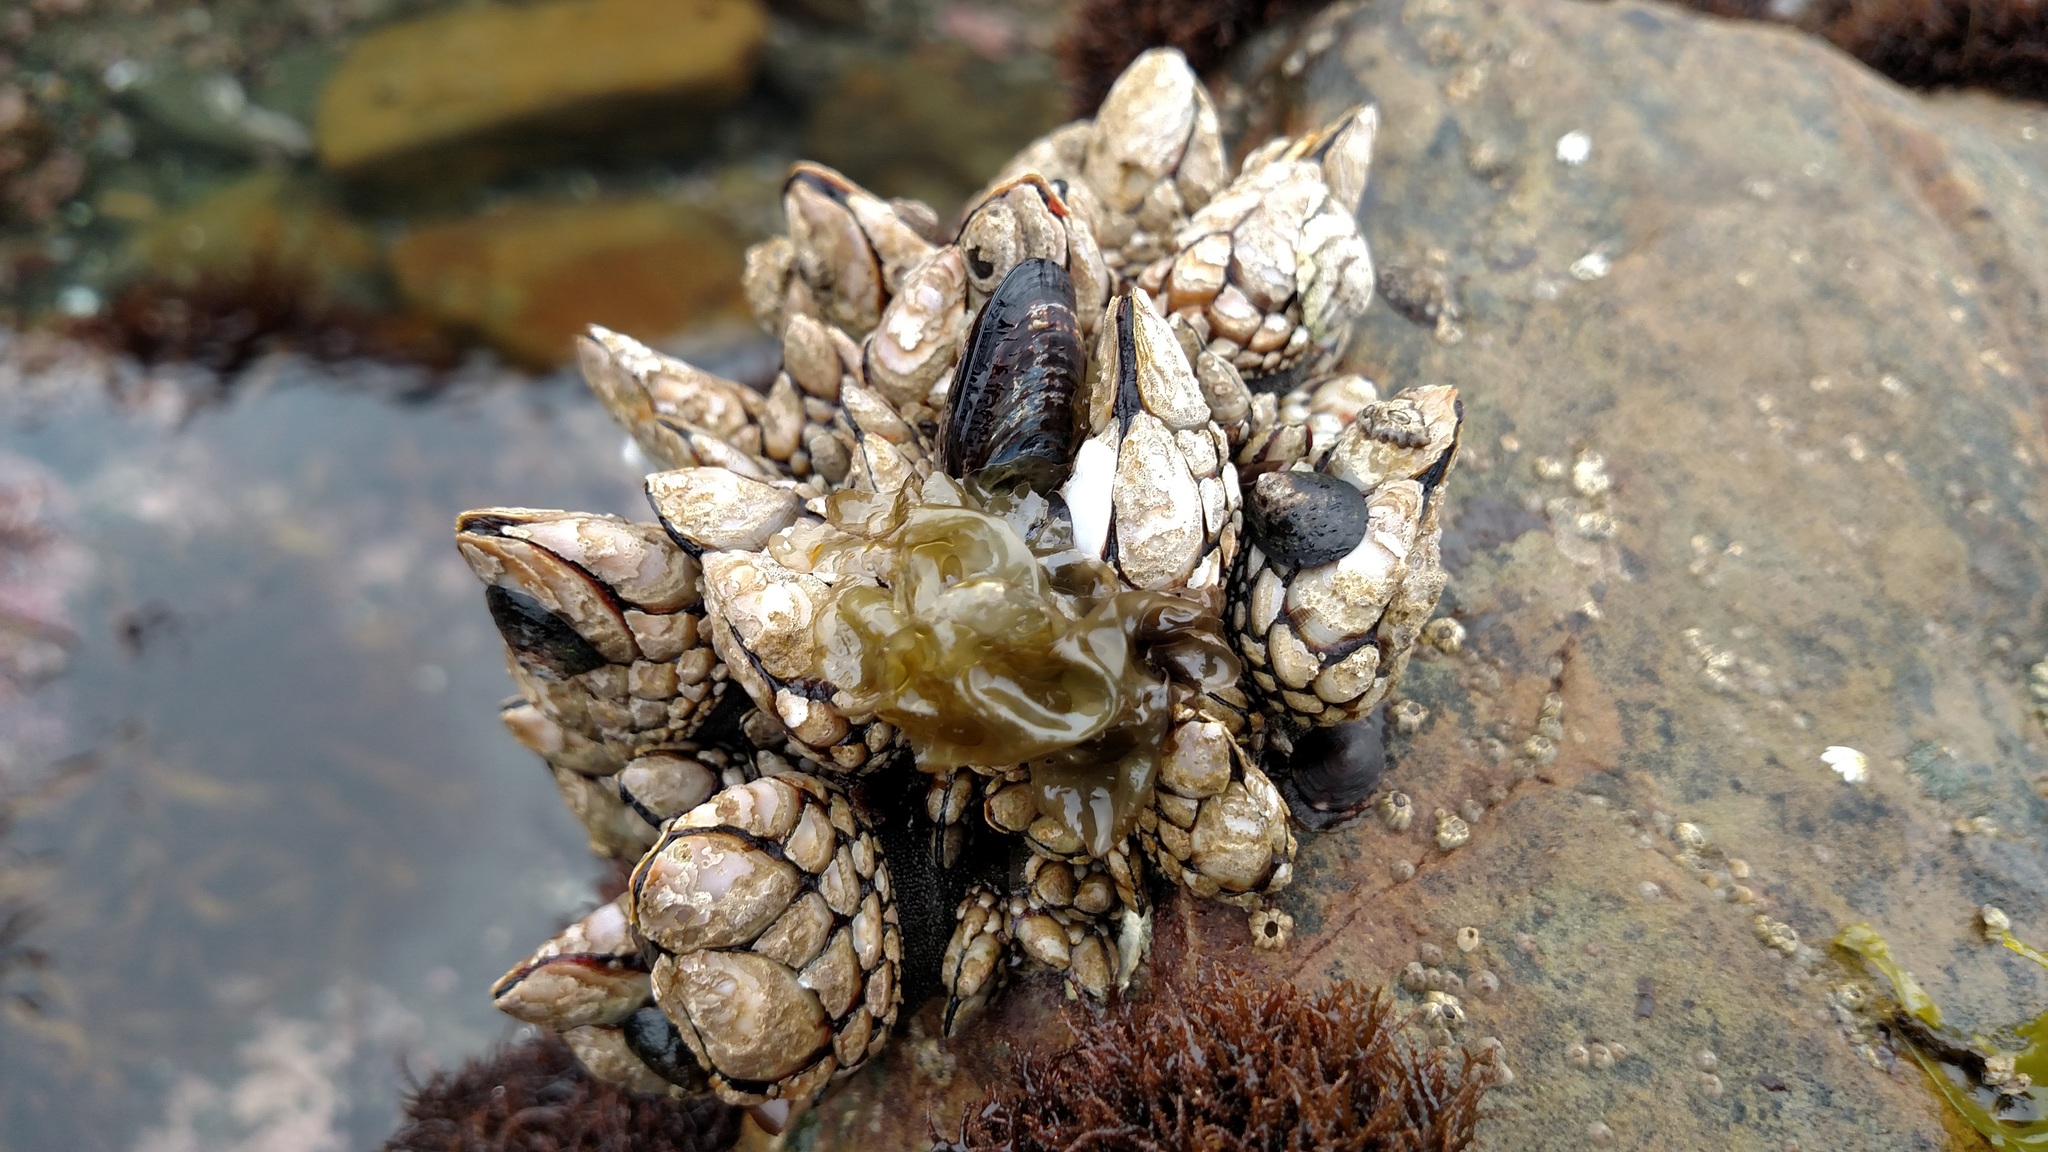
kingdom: Animalia
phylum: Arthropoda
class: Maxillopoda
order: Pedunculata
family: Pollicipedidae
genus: Pollicipes
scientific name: Pollicipes polymerus
